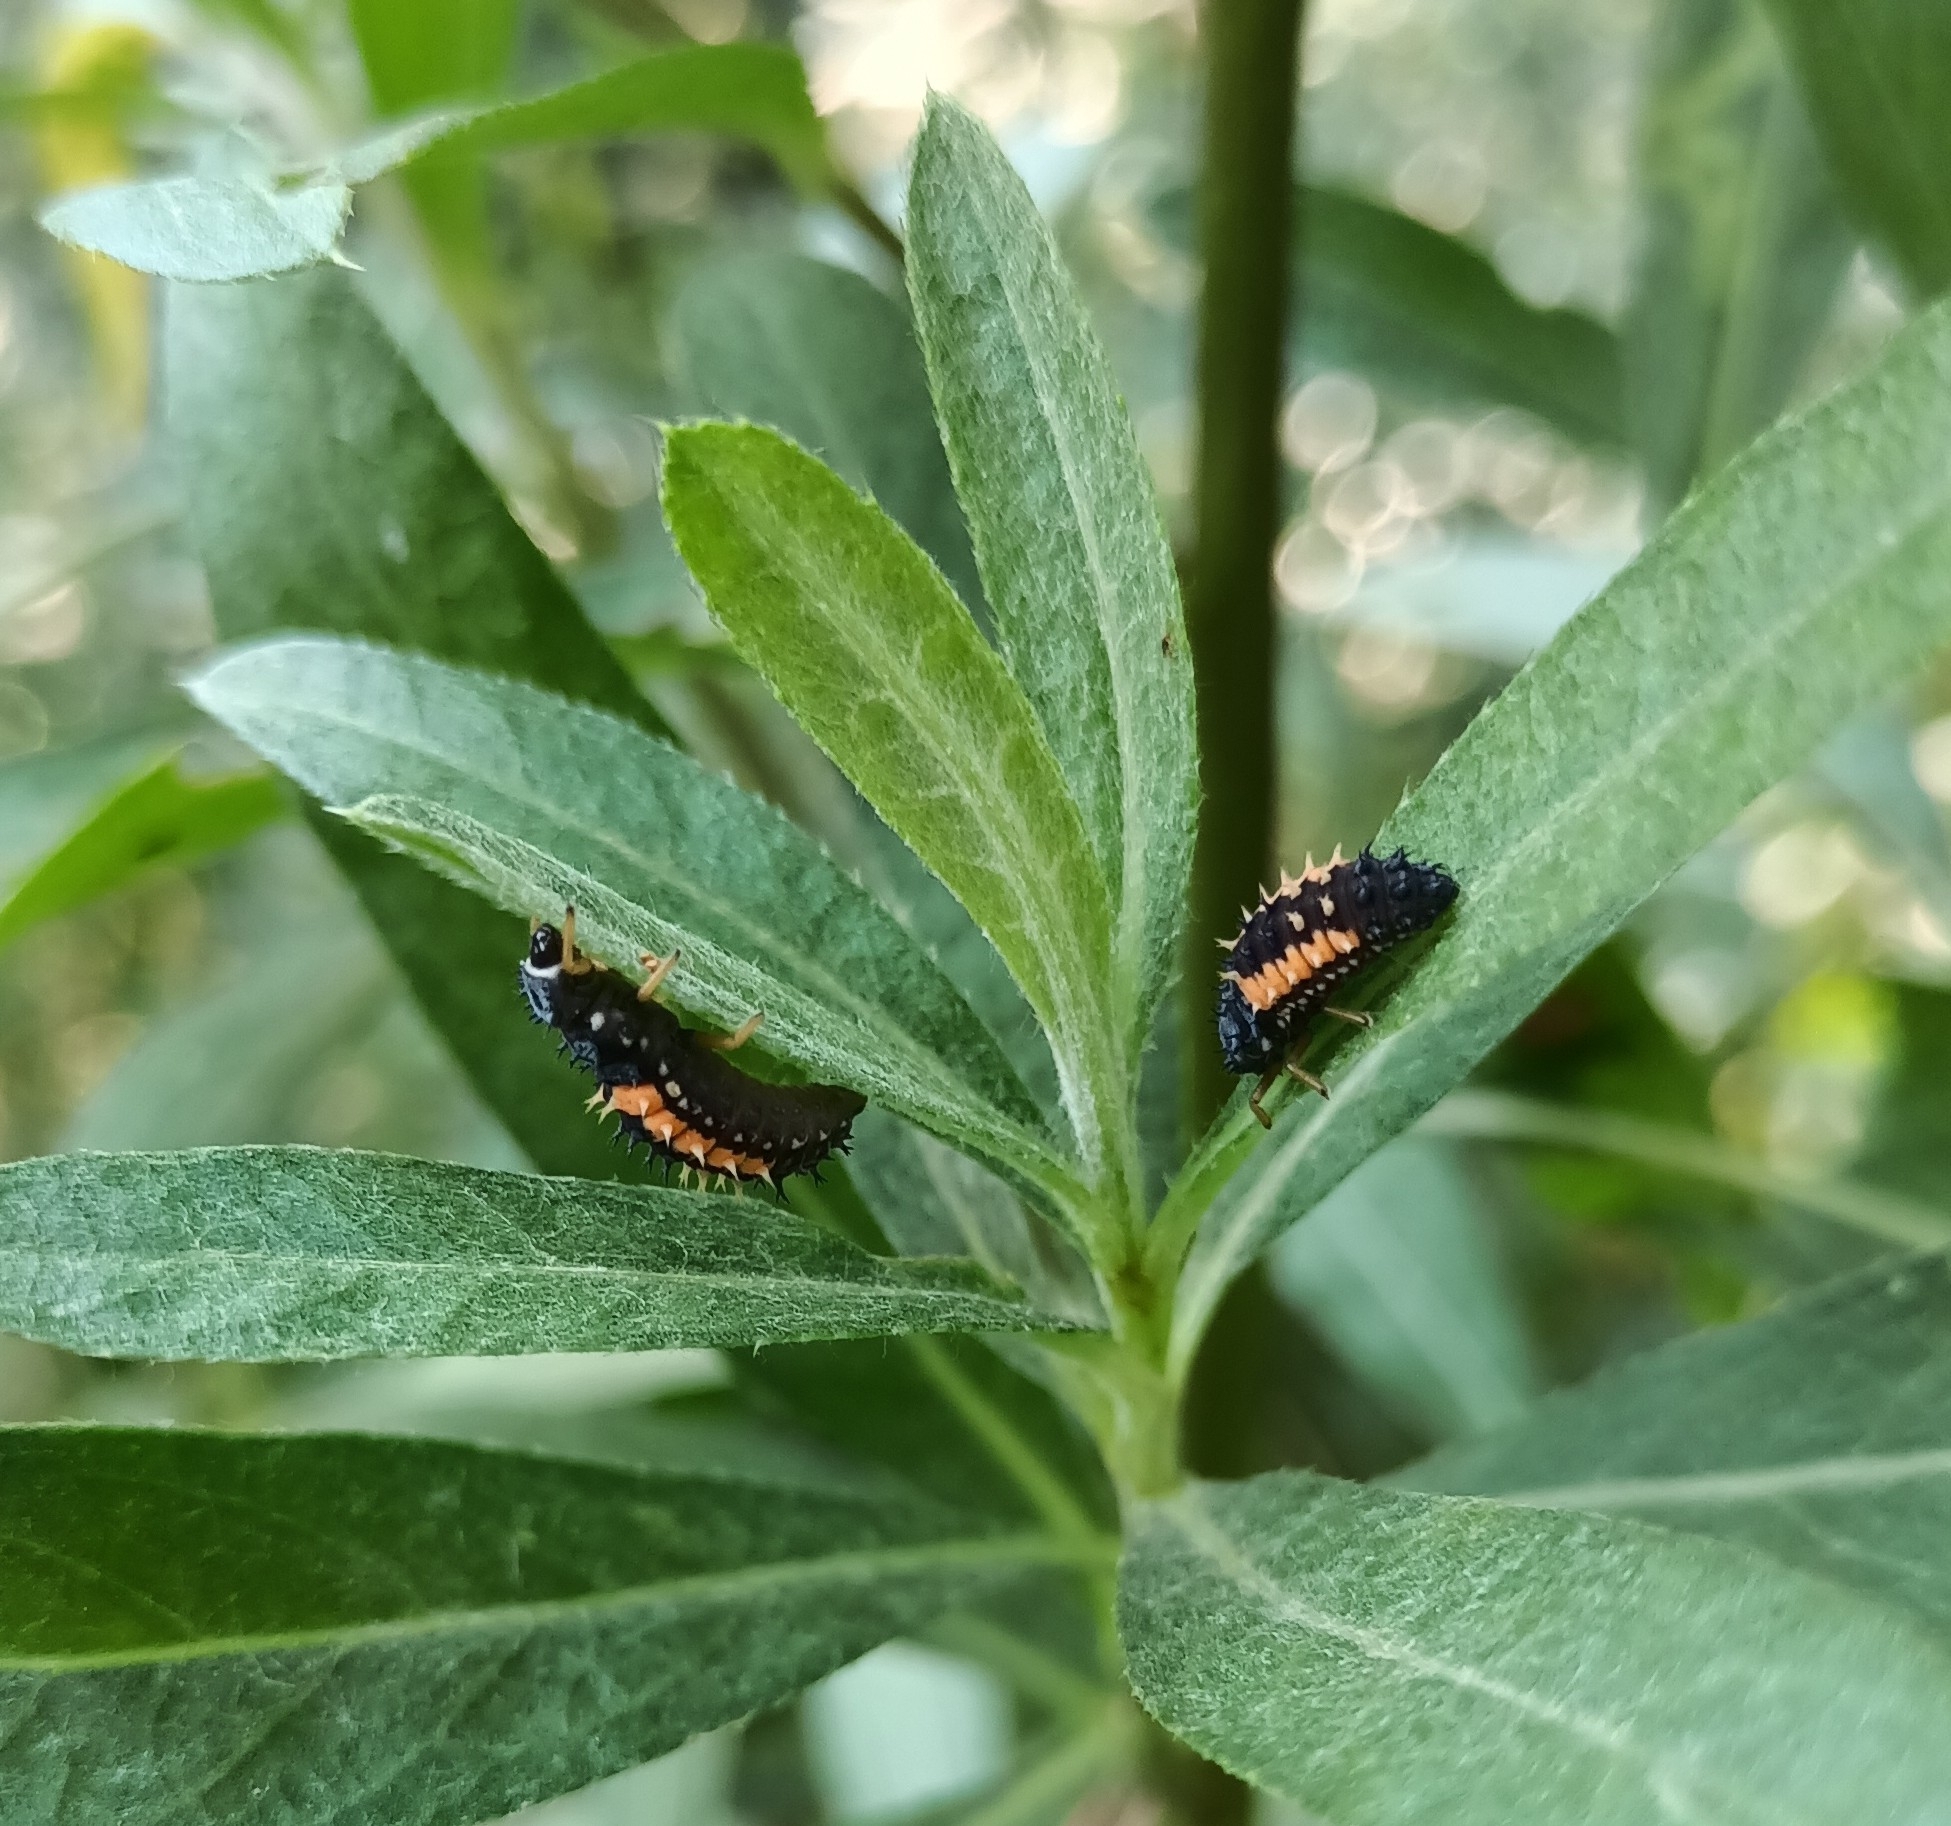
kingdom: Animalia
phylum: Arthropoda
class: Insecta
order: Coleoptera
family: Coccinellidae
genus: Harmonia
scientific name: Harmonia axyridis
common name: Harlequin ladybird
